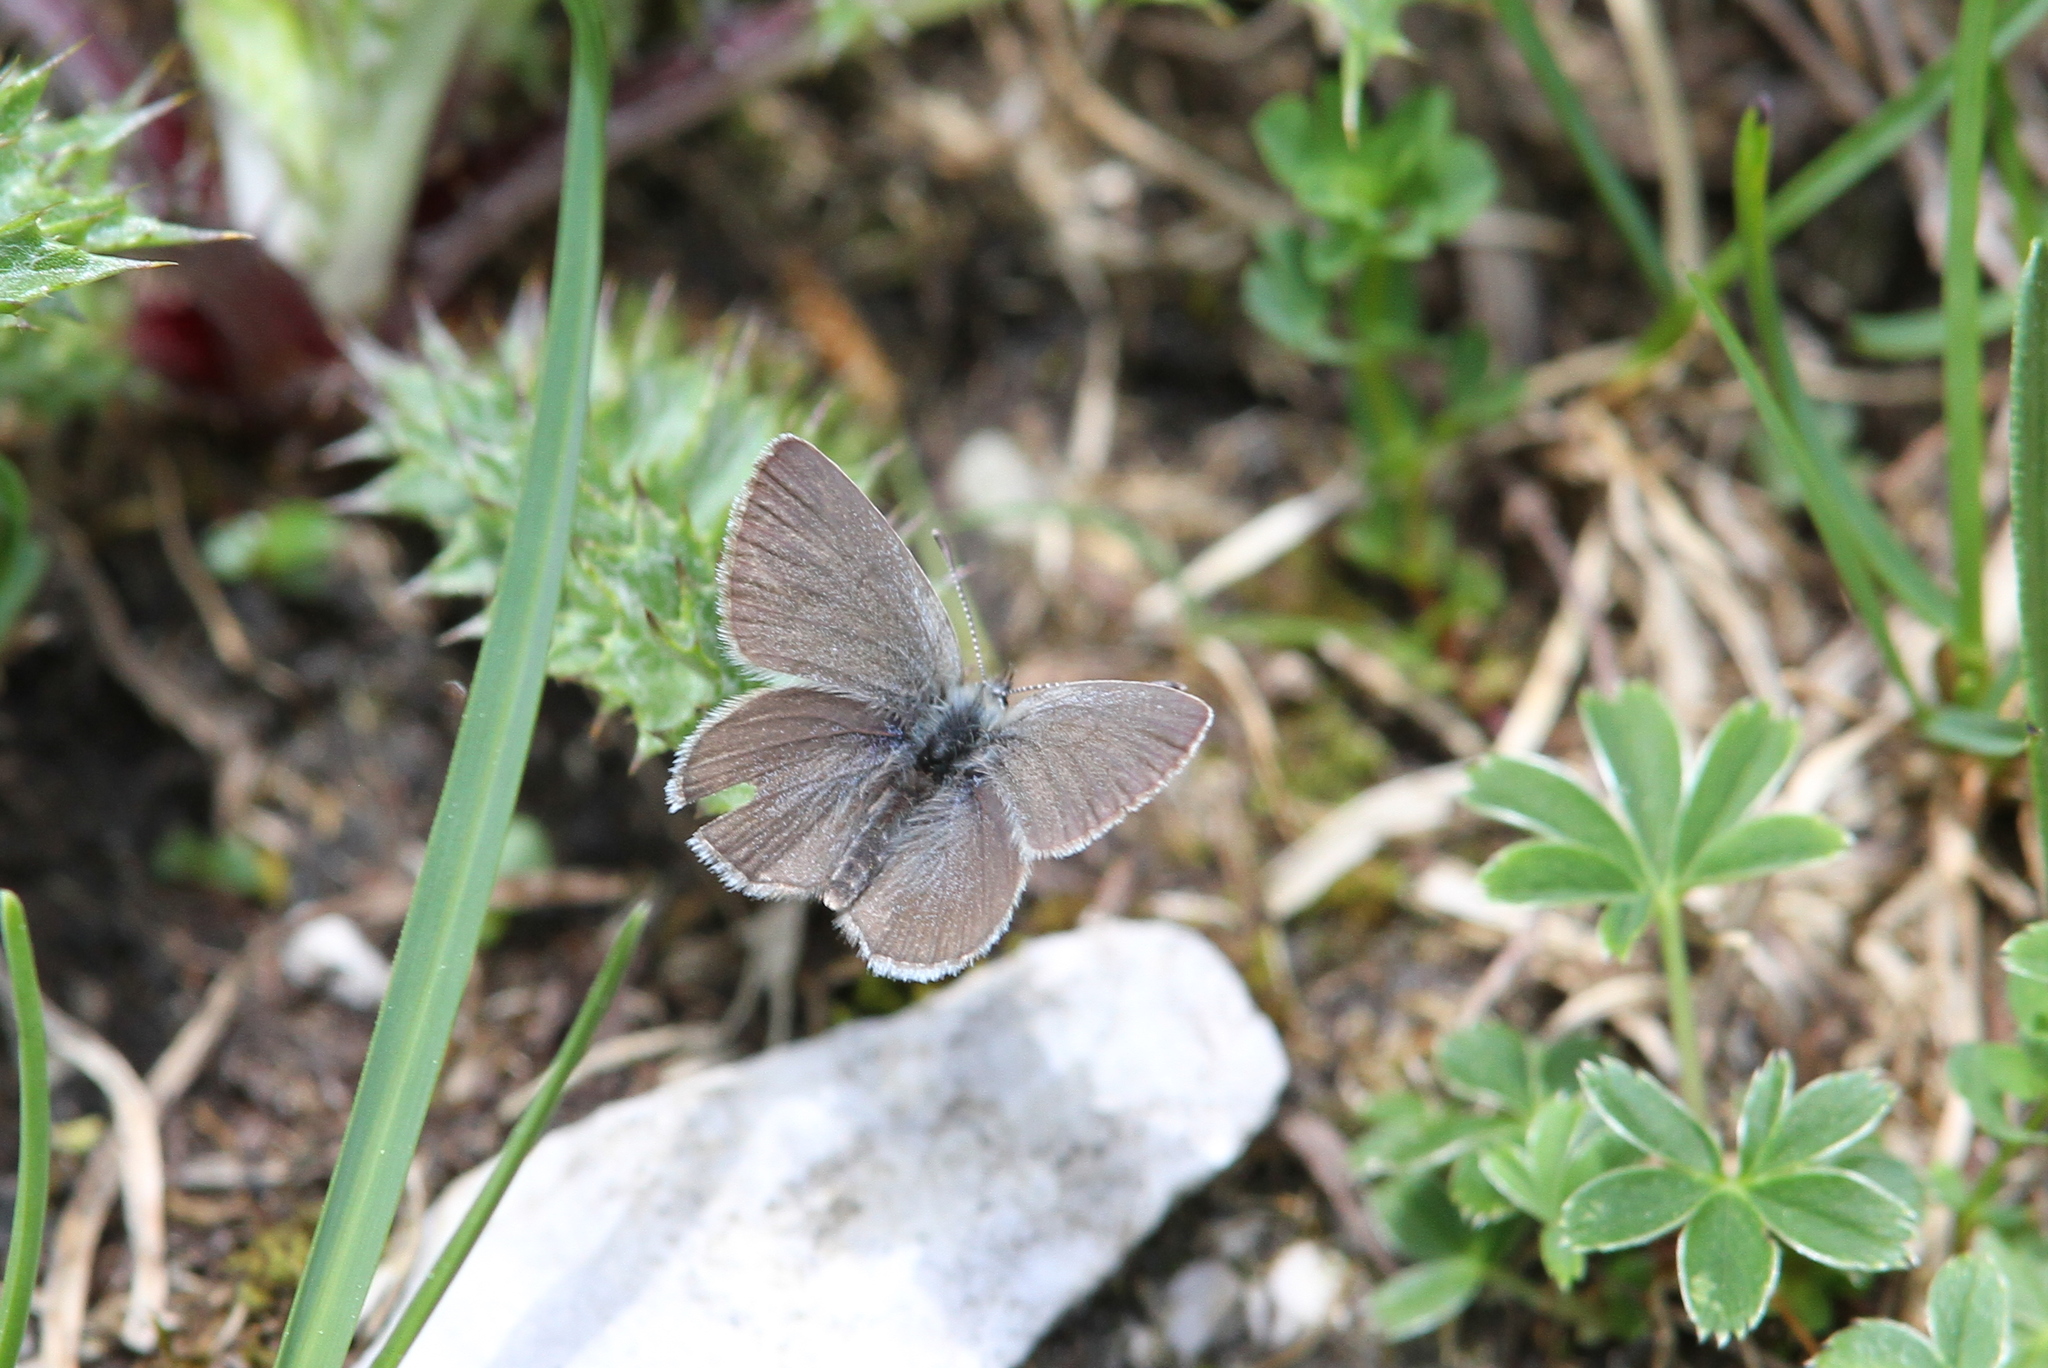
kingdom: Animalia
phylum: Arthropoda
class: Insecta
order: Lepidoptera
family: Lycaenidae
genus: Cupido
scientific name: Cupido minimus
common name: Small blue
